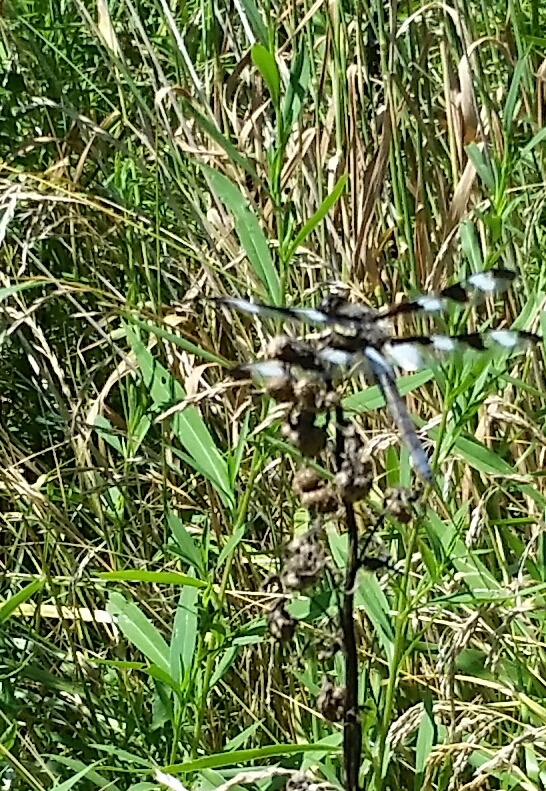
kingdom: Animalia
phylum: Arthropoda
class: Insecta
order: Odonata
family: Libellulidae
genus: Libellula
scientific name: Libellula pulchella
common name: Twelve-spotted skimmer
